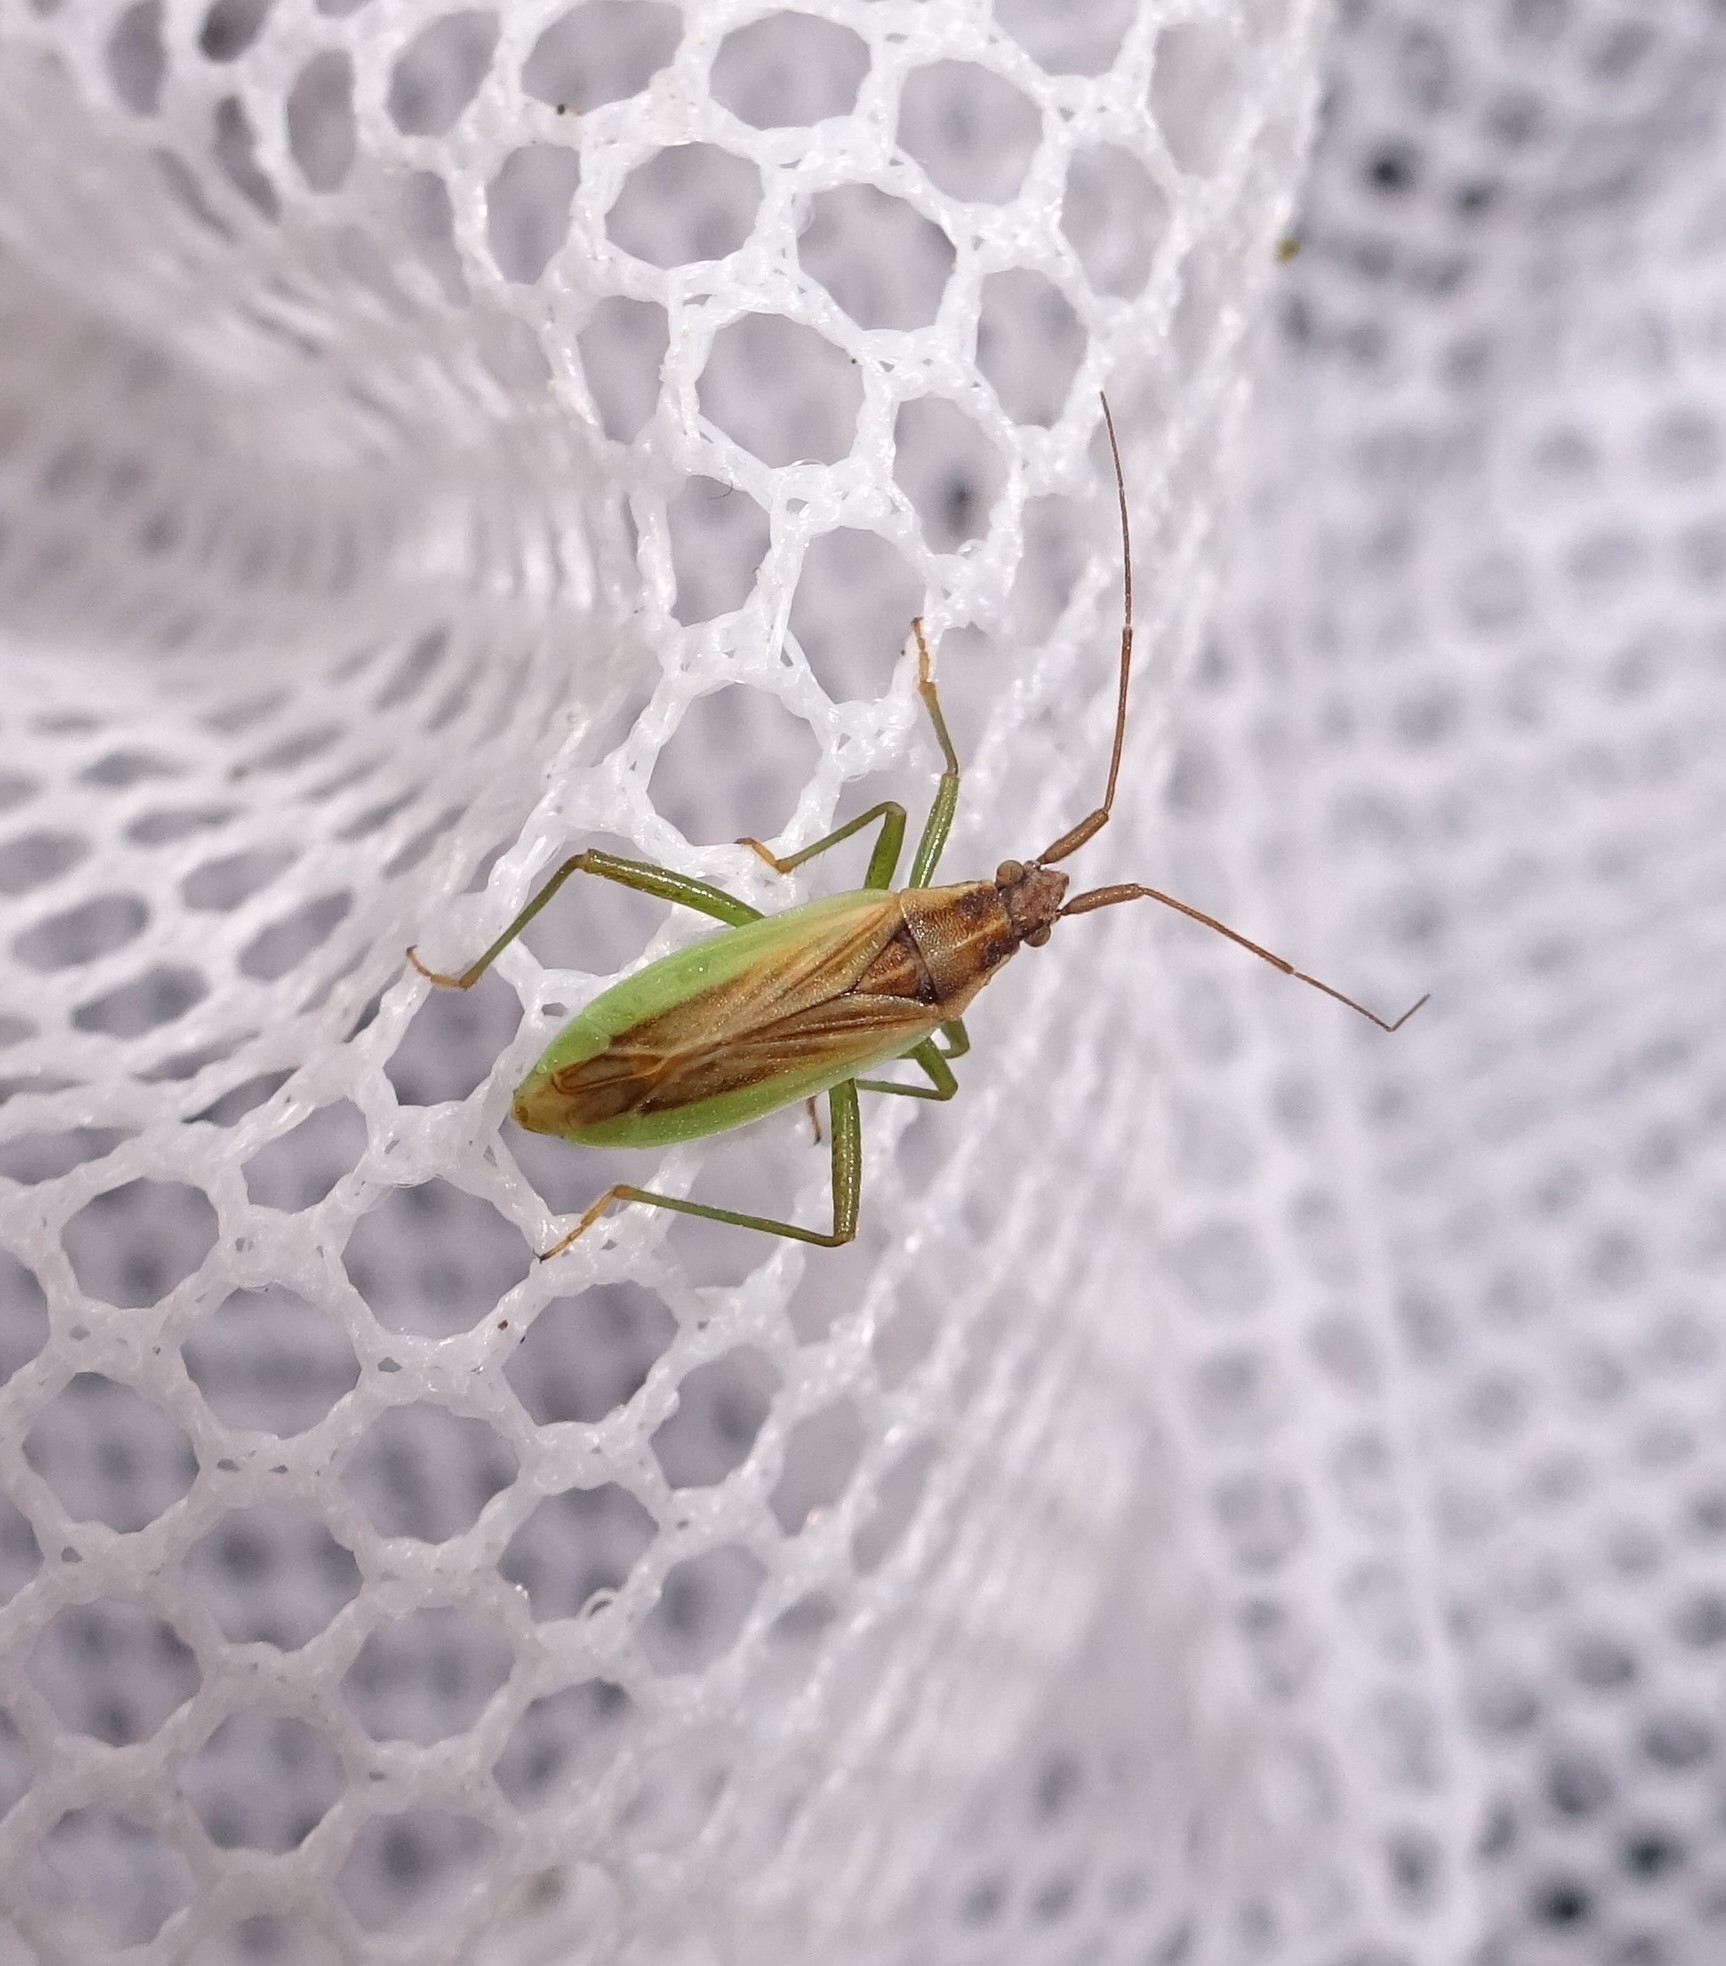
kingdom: Animalia
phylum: Arthropoda
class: Insecta
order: Hemiptera
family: Miridae
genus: Stenodema
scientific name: Stenodema holsata
